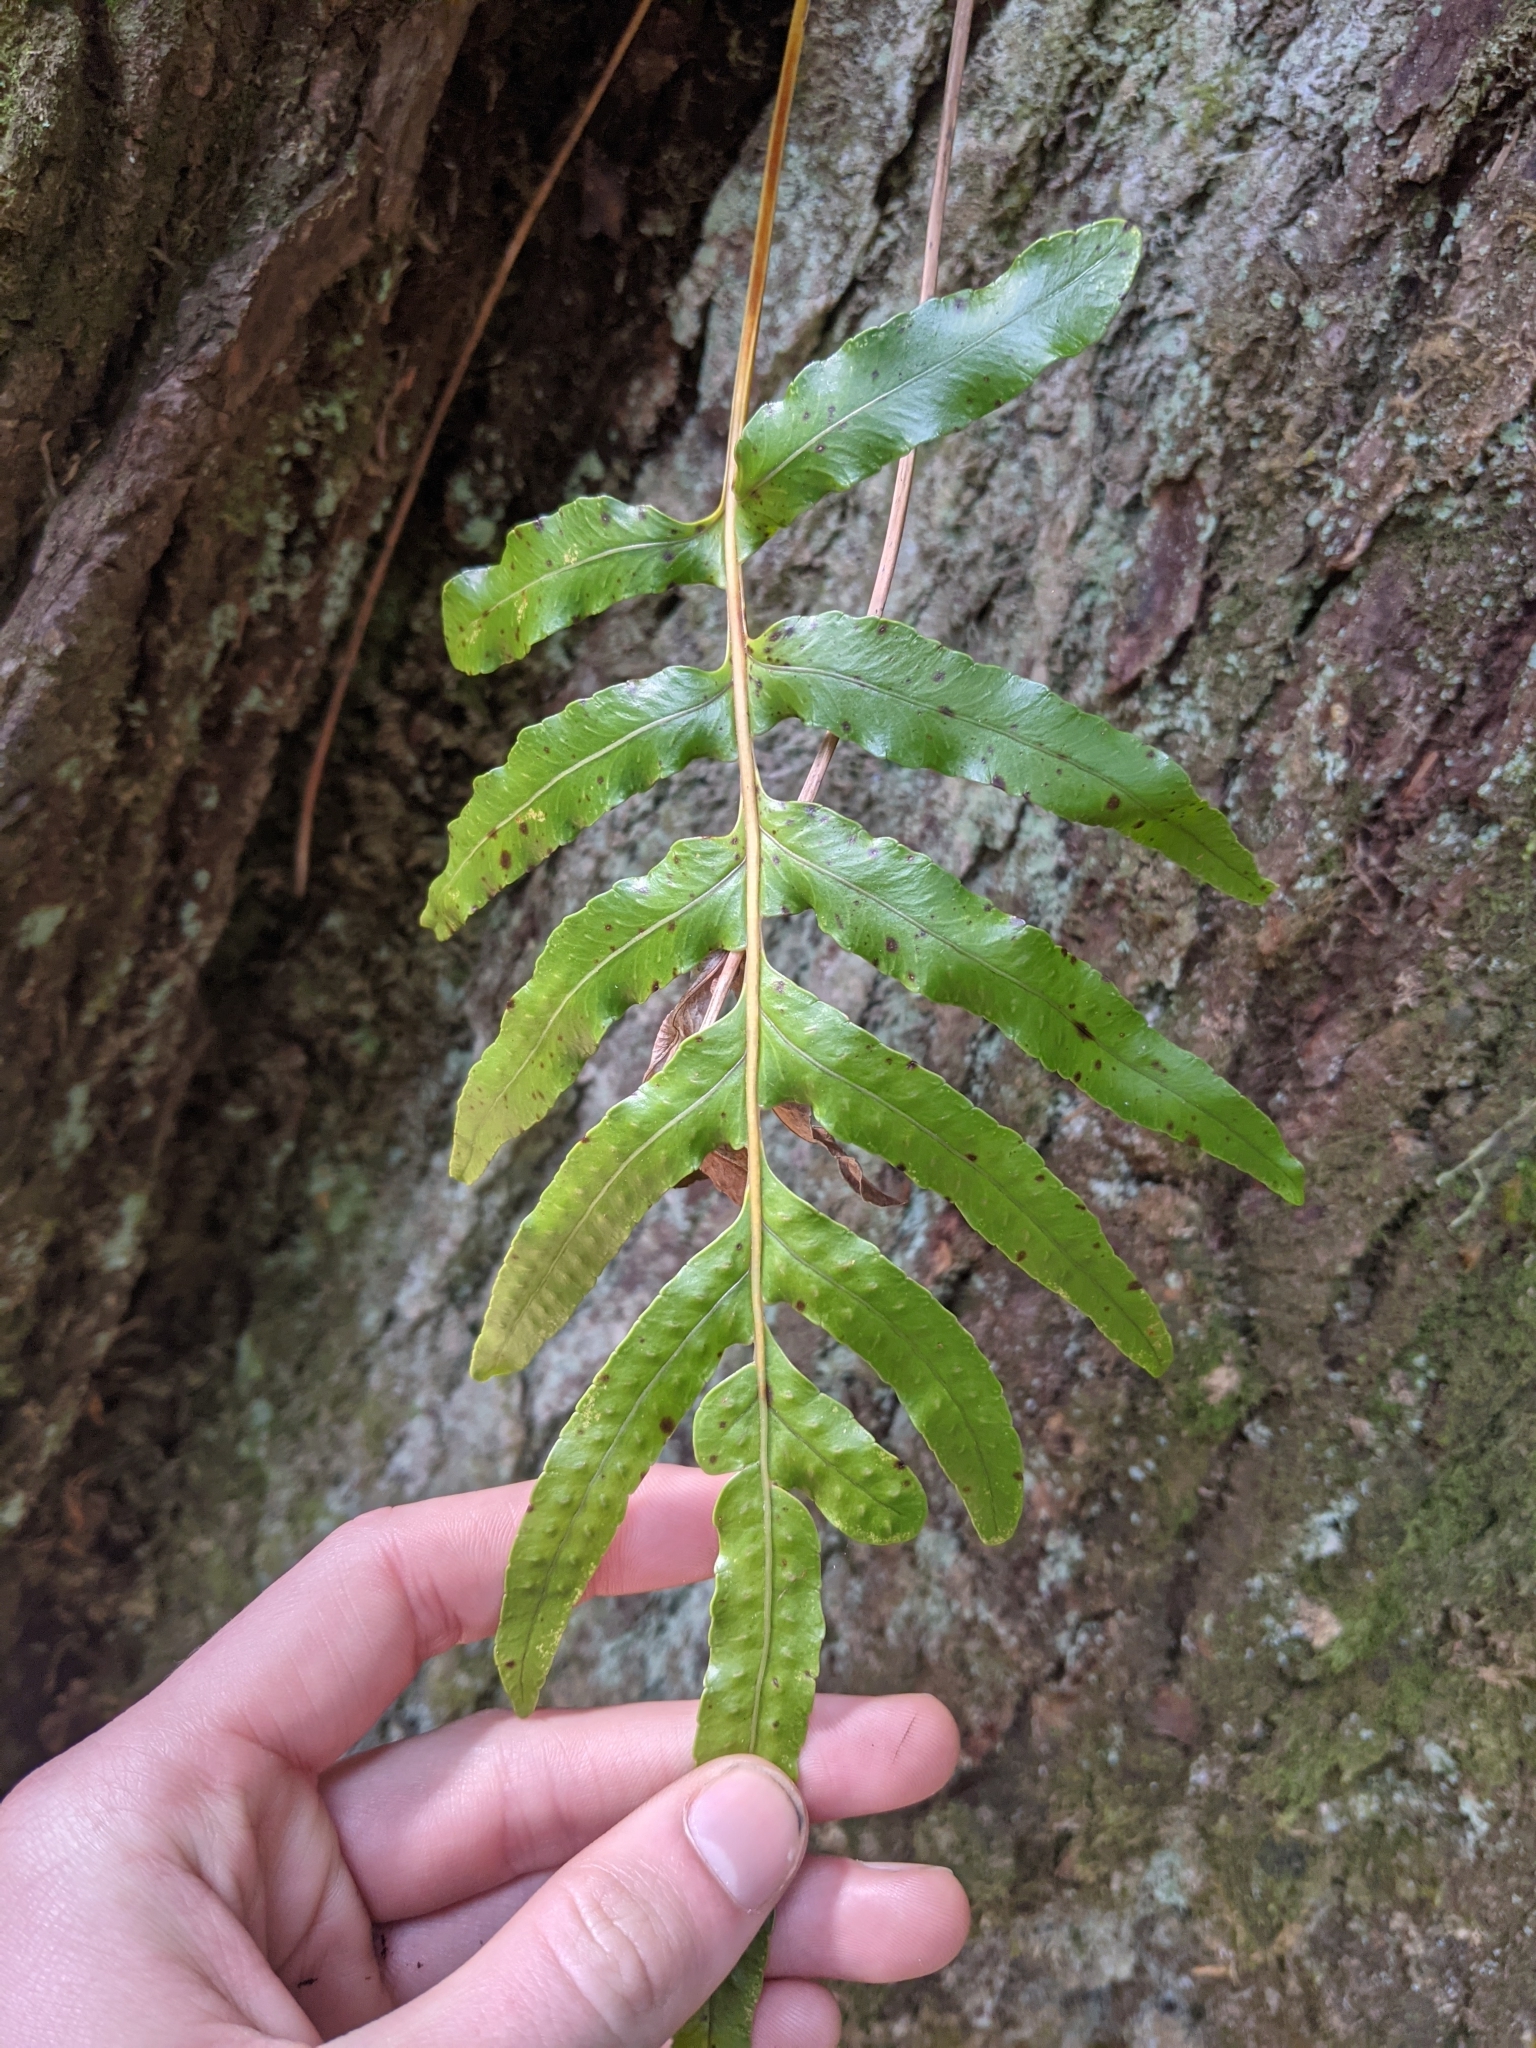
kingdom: Plantae
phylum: Tracheophyta
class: Polypodiopsida
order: Polypodiales
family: Polypodiaceae
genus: Polypodium
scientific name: Polypodium scouleri
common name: Scouler's polypody
